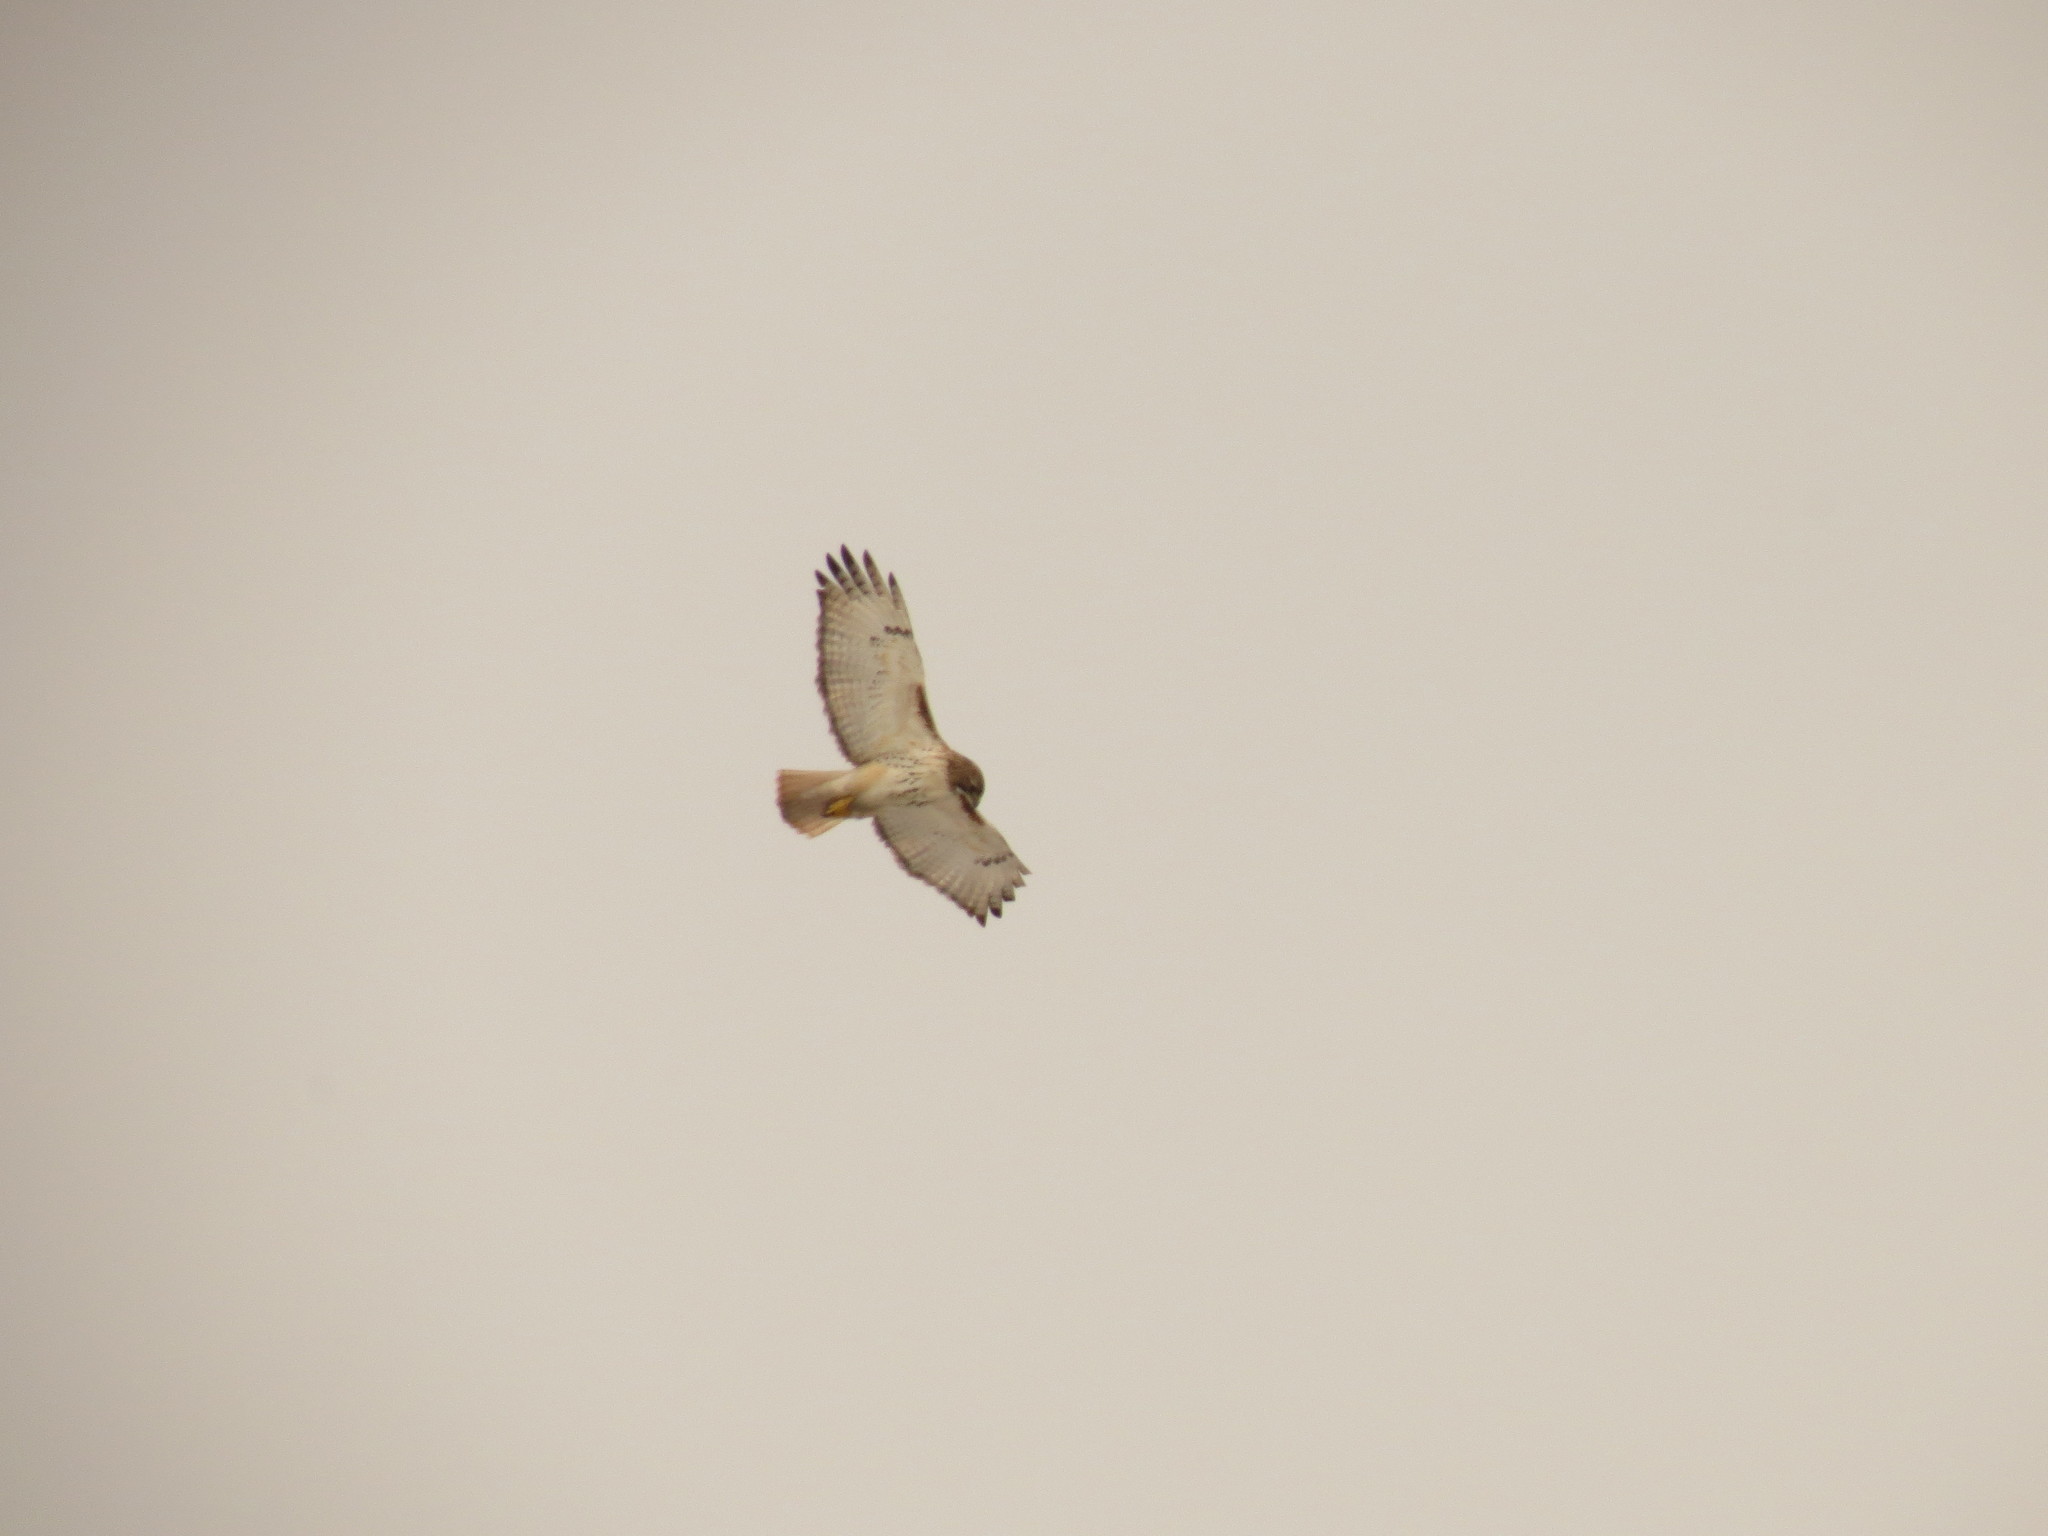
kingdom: Animalia
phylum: Chordata
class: Aves
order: Accipitriformes
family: Accipitridae
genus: Buteo
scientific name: Buteo jamaicensis
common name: Red-tailed hawk
